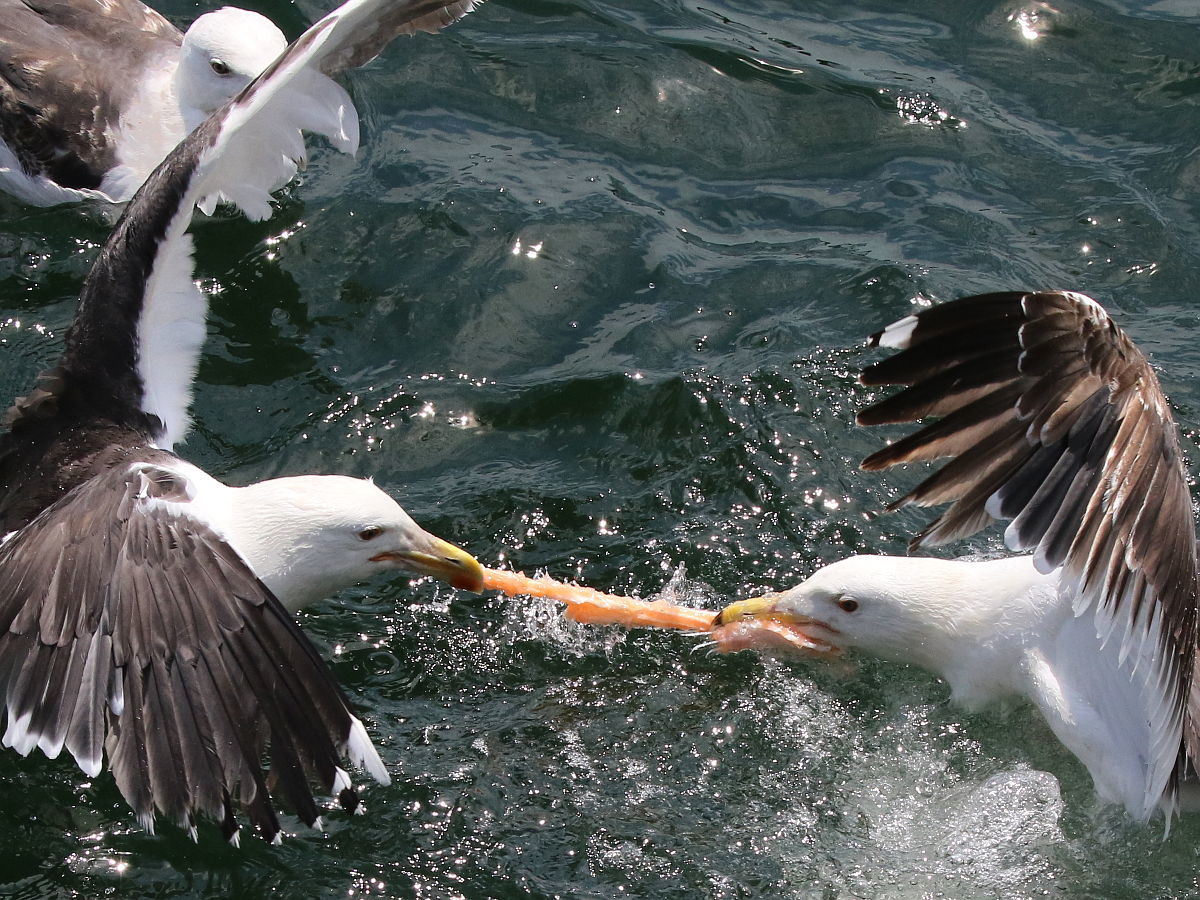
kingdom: Animalia
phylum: Chordata
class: Aves
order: Charadriiformes
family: Laridae
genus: Larus
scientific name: Larus marinus
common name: Great black-backed gull
